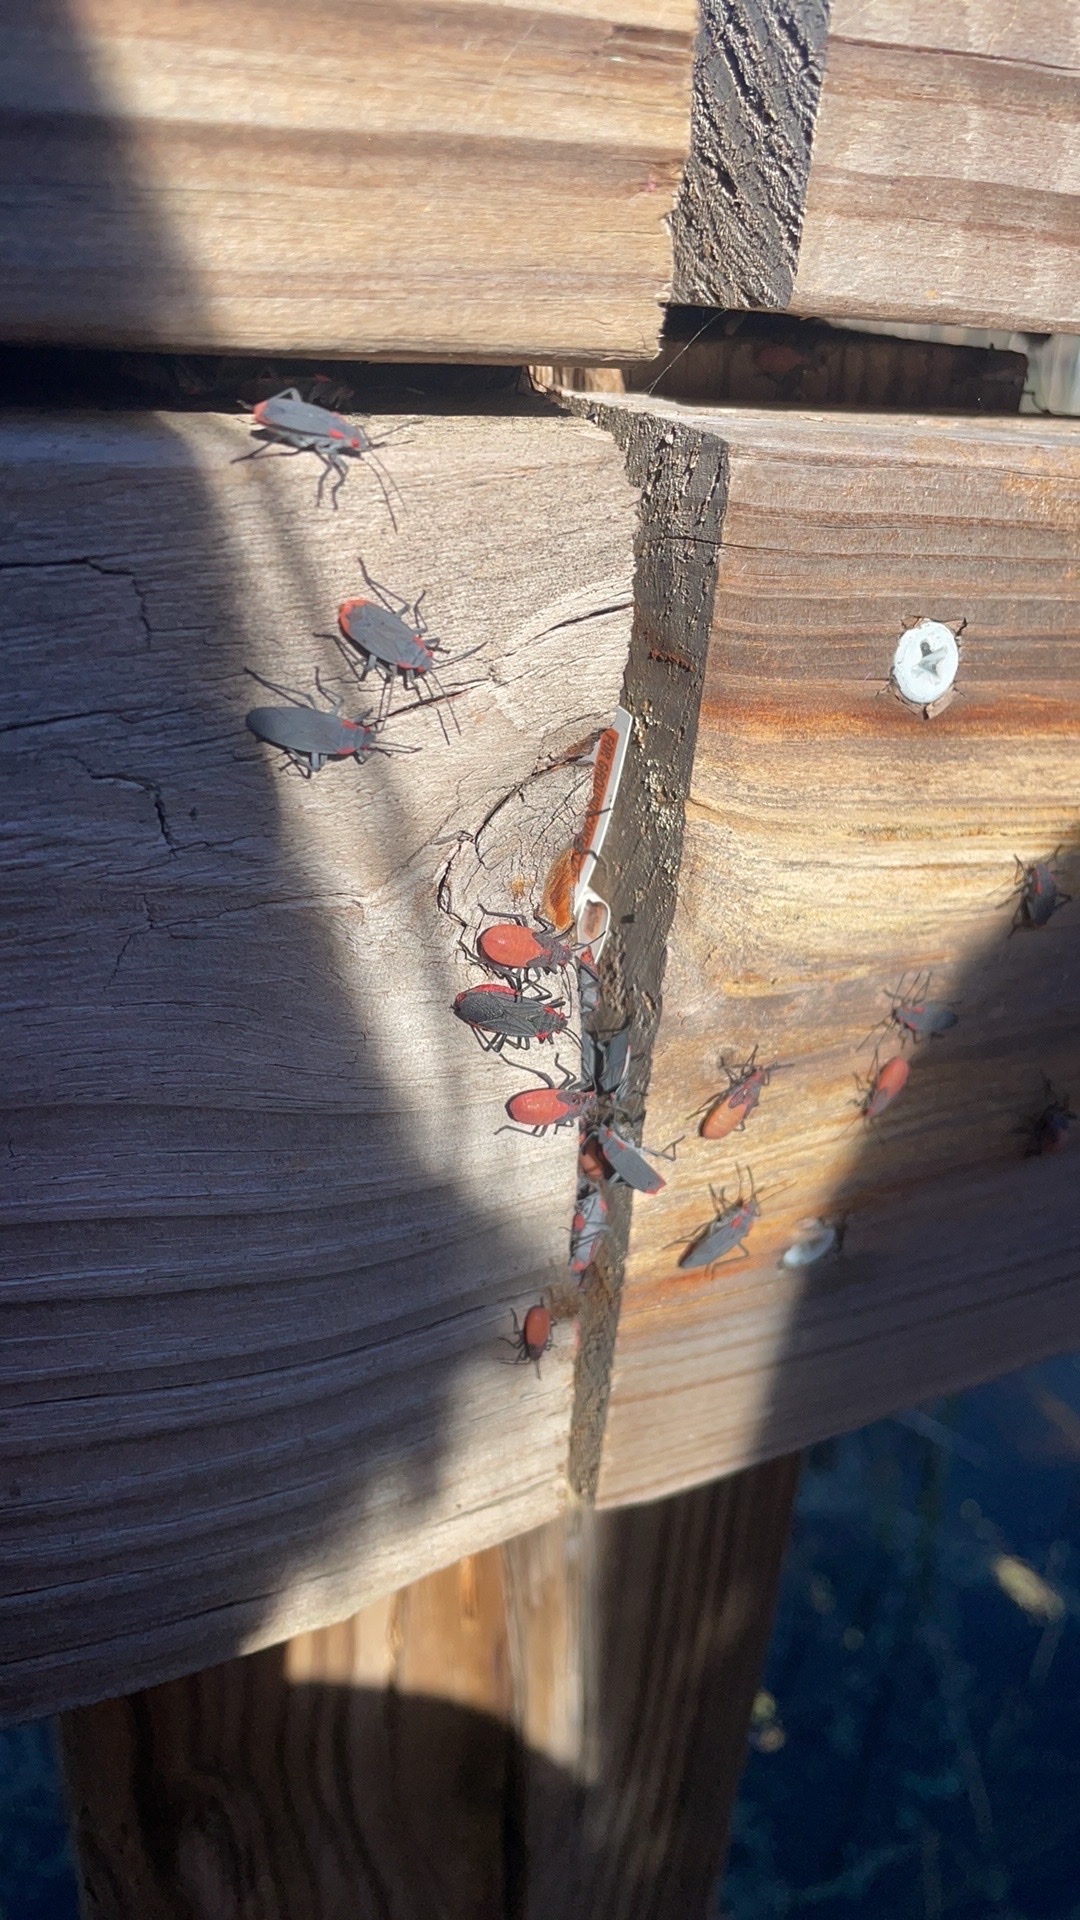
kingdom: Animalia
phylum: Arthropoda
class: Insecta
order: Hemiptera
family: Rhopalidae
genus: Jadera
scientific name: Jadera haematoloma
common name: Red-shouldered bug
